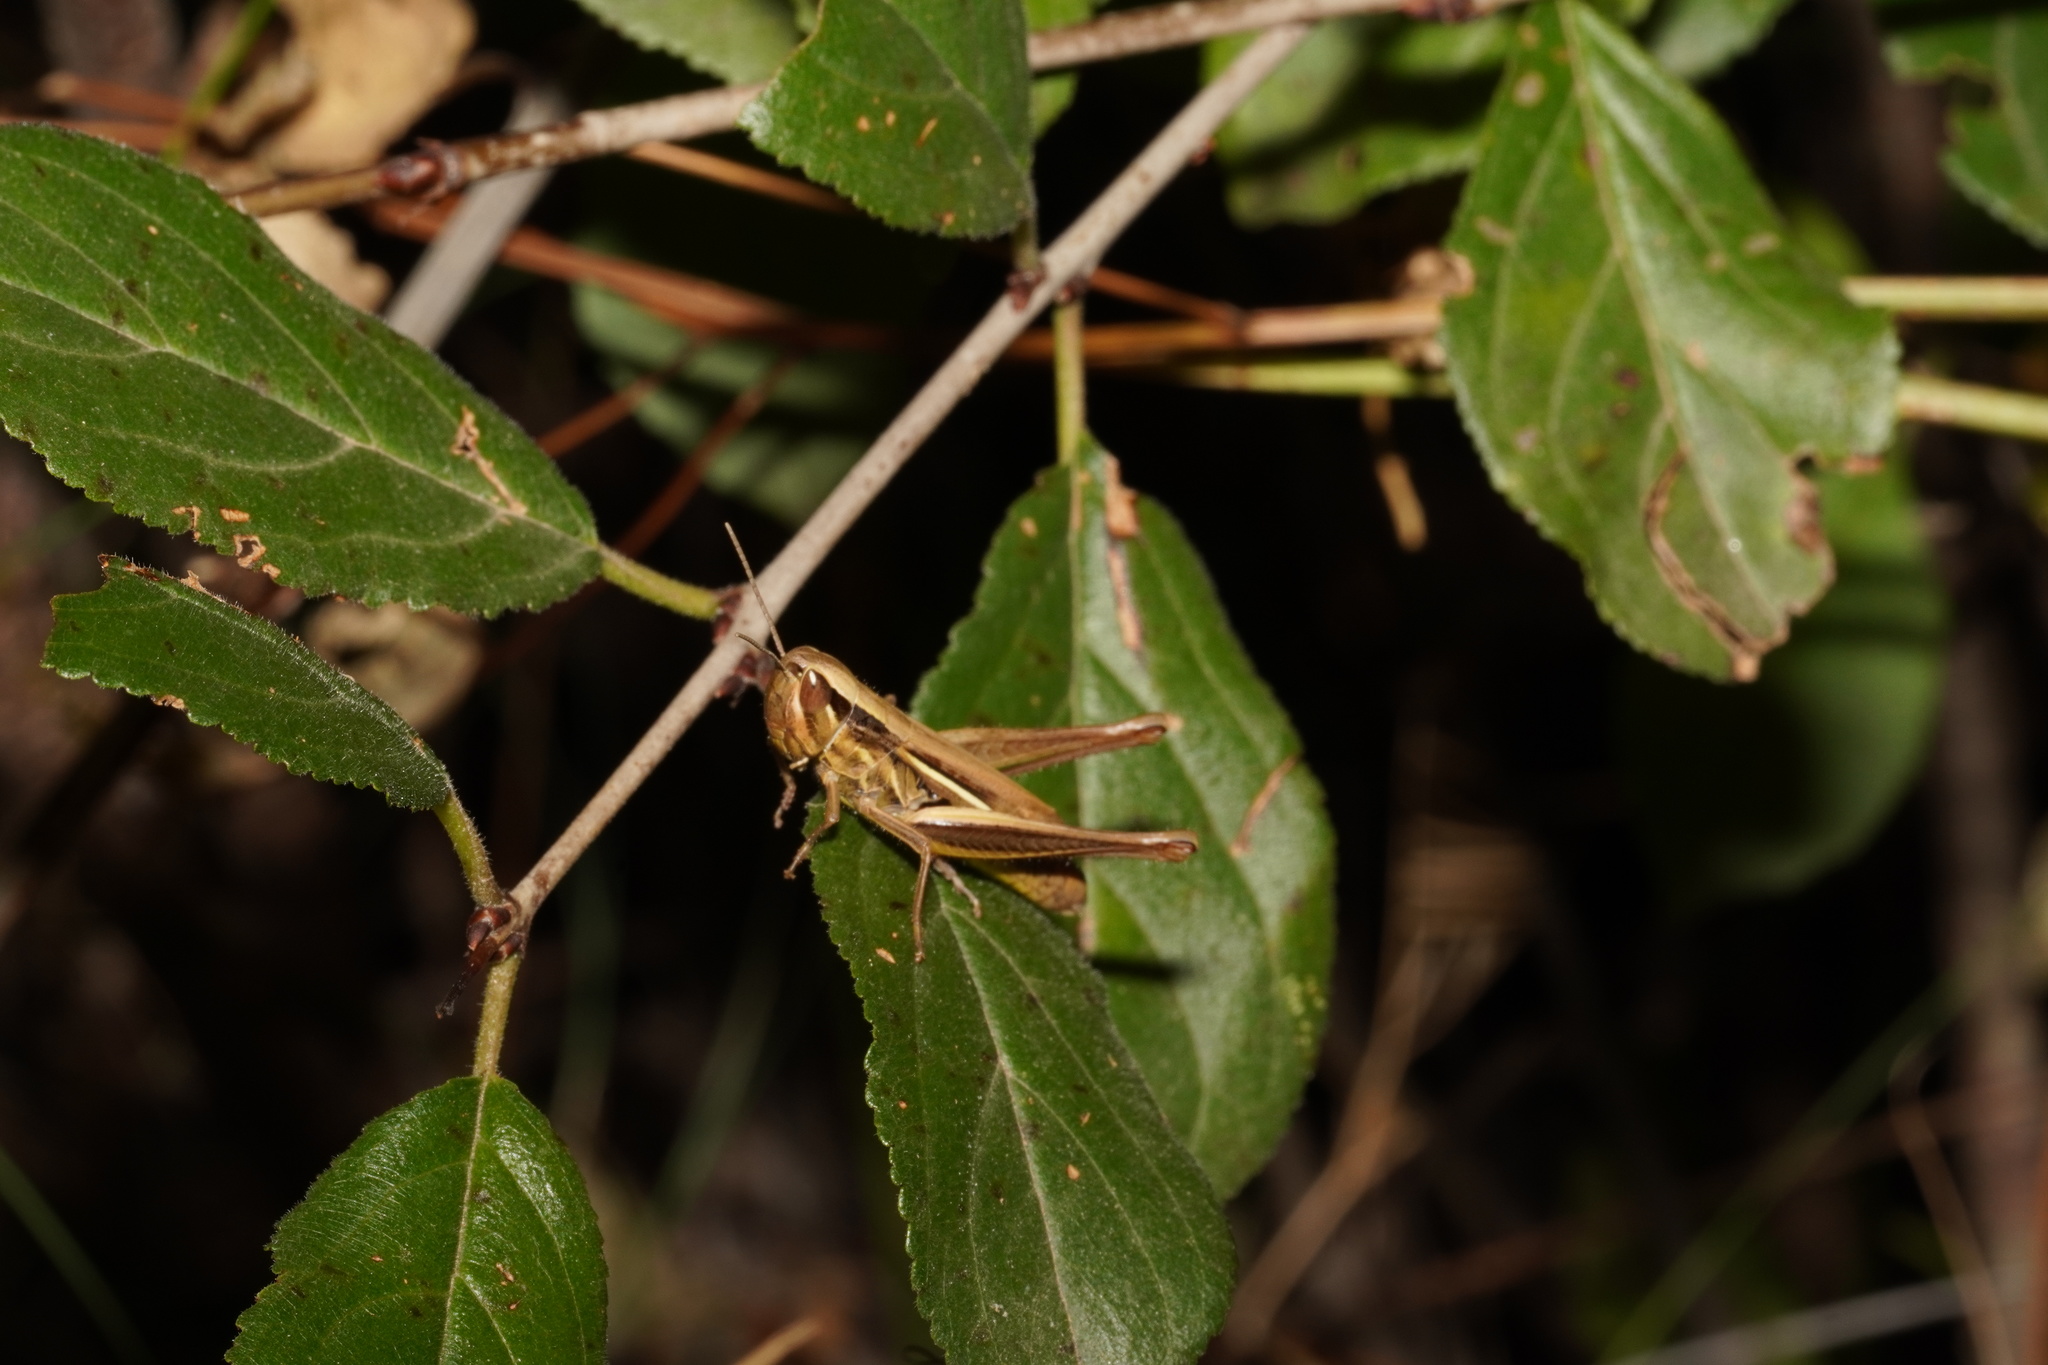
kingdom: Animalia
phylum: Arthropoda
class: Insecta
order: Orthoptera
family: Acrididae
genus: Euchorthippus
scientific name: Euchorthippus elegantulus
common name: Elegant straw grasshopper
